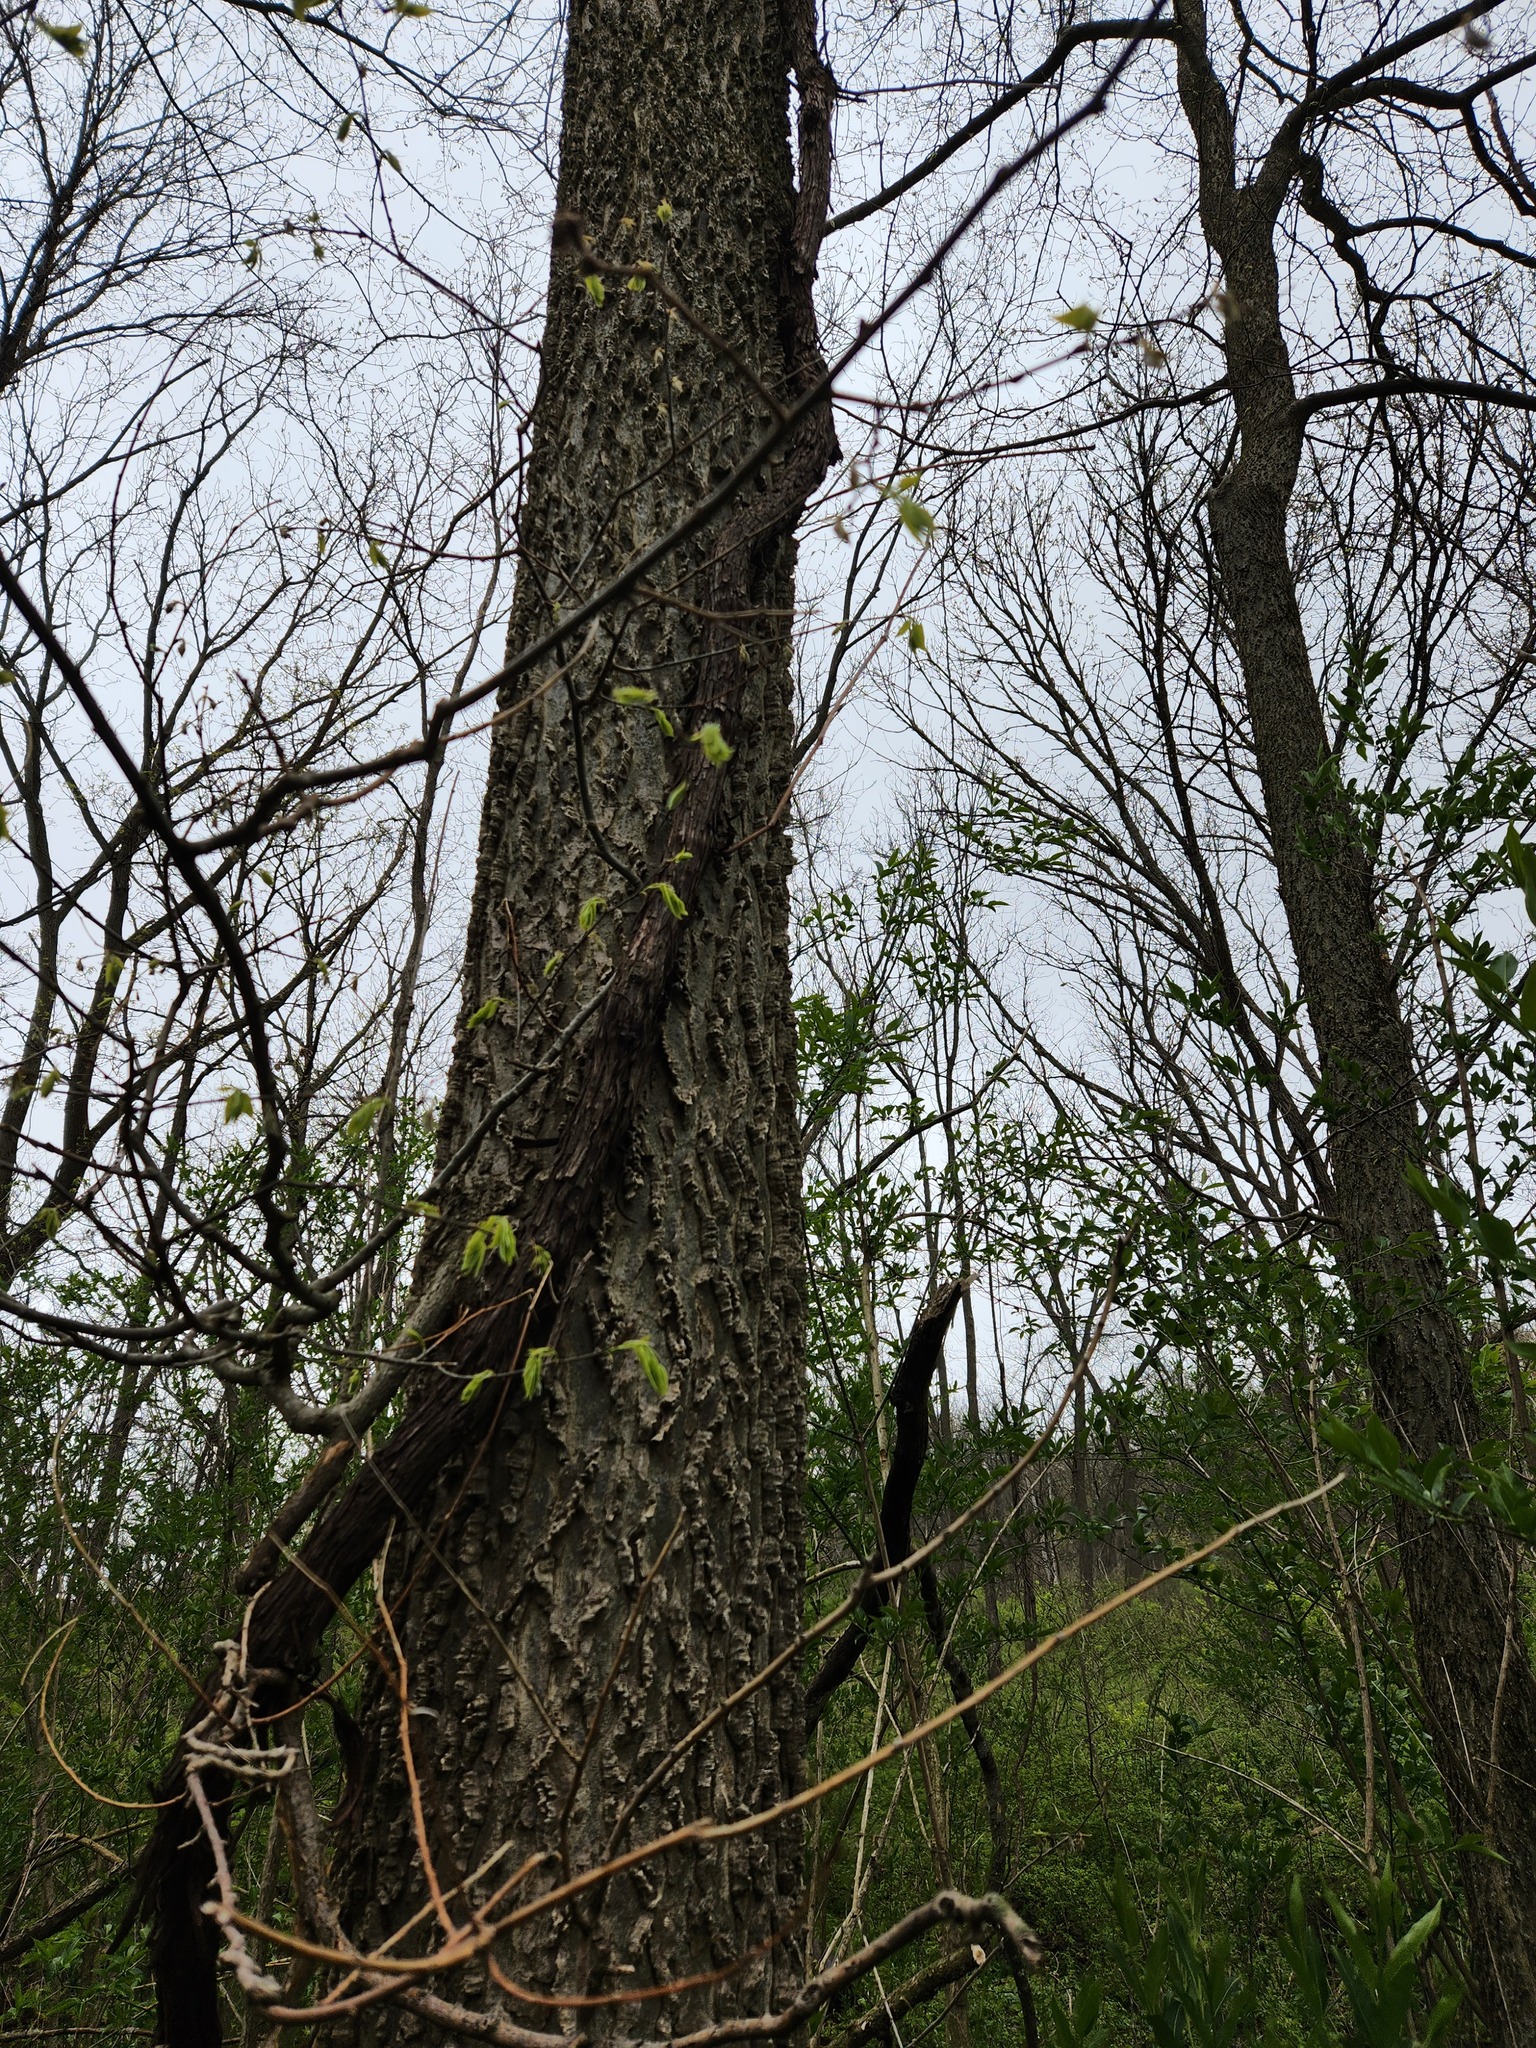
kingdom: Plantae
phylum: Tracheophyta
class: Magnoliopsida
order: Rosales
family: Cannabaceae
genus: Celtis
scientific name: Celtis occidentalis
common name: Common hackberry
